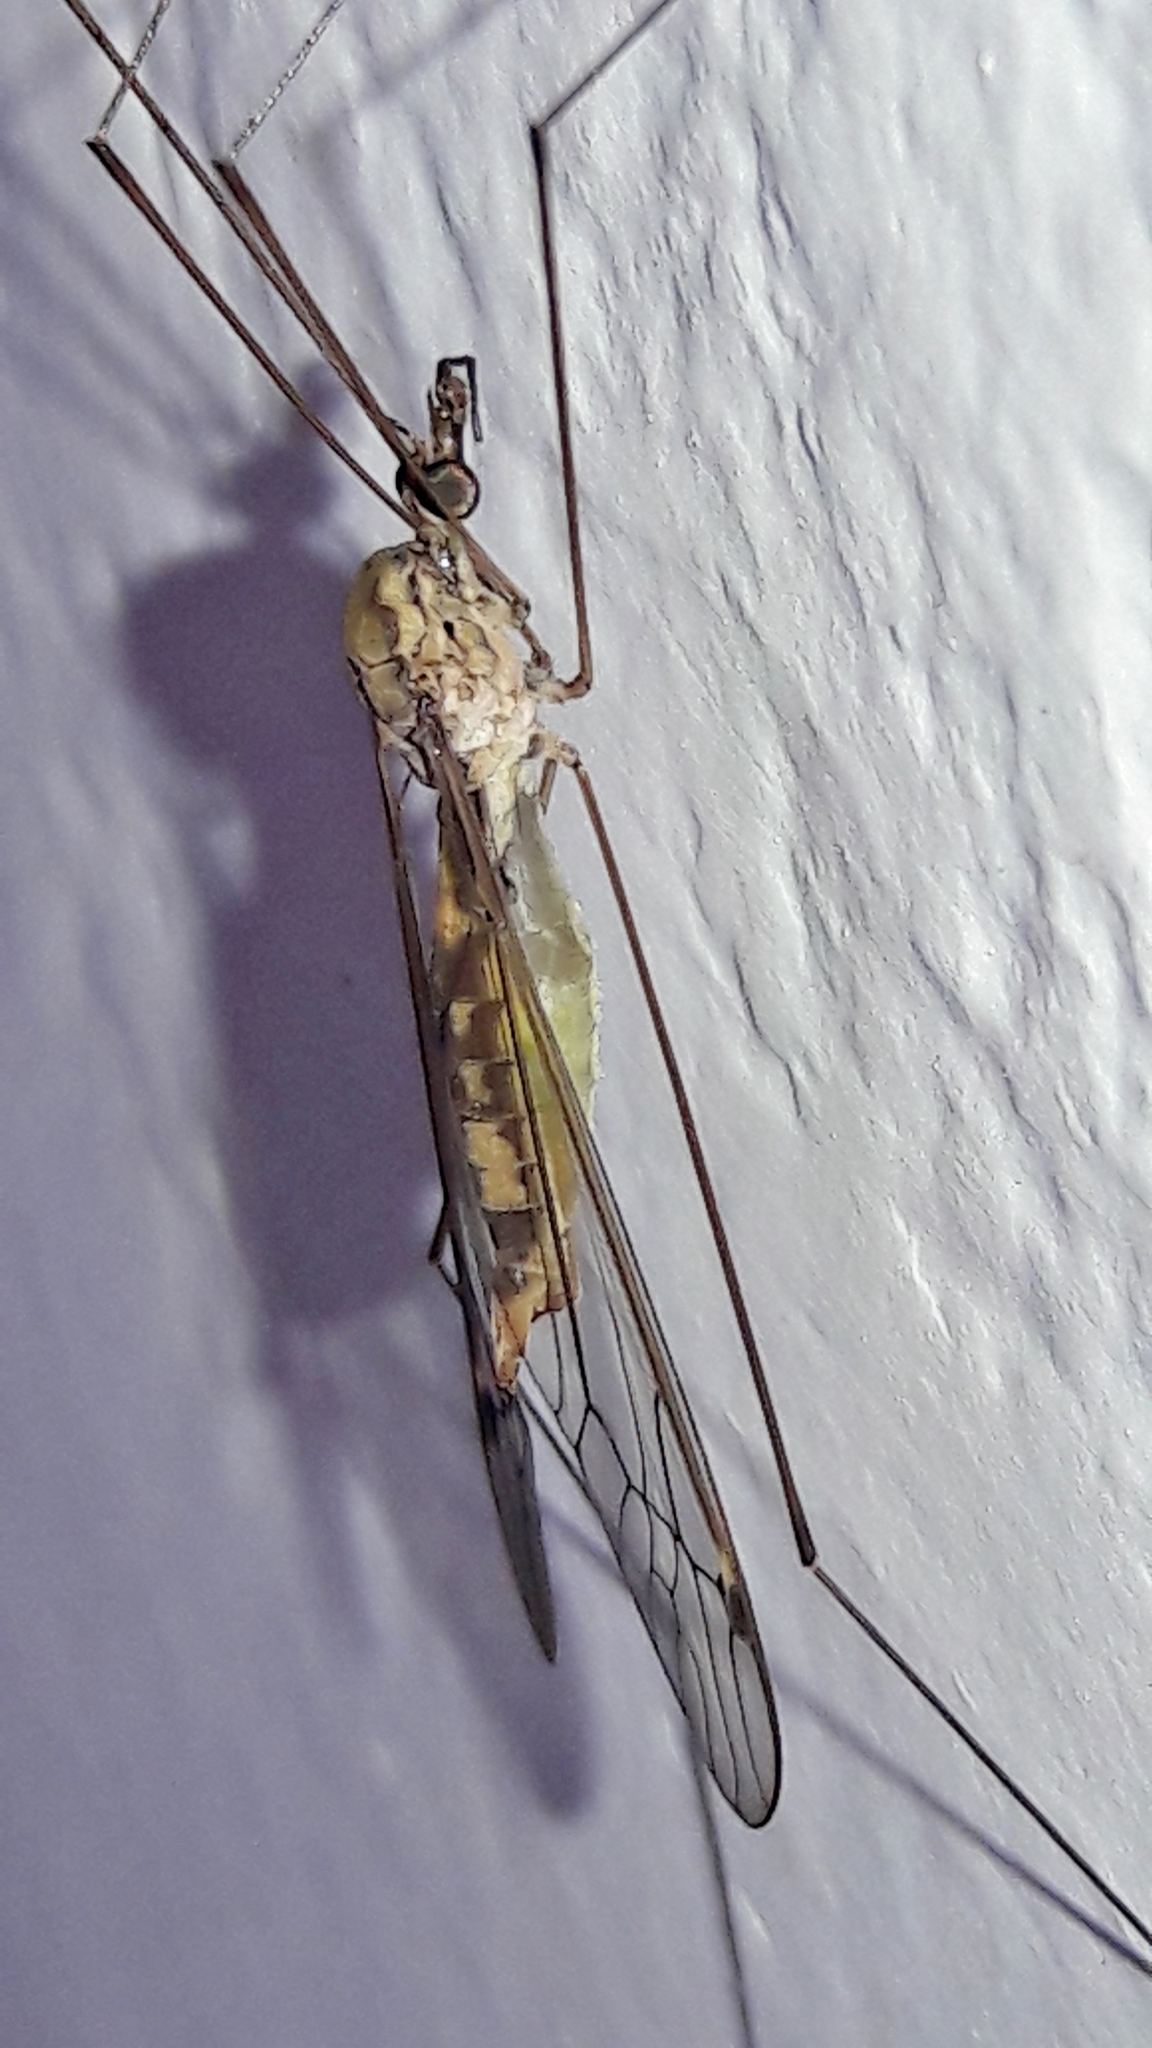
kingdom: Animalia
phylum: Arthropoda
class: Insecta
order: Diptera
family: Tipulidae
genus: Maekistocera
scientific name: Maekistocera longipennis
